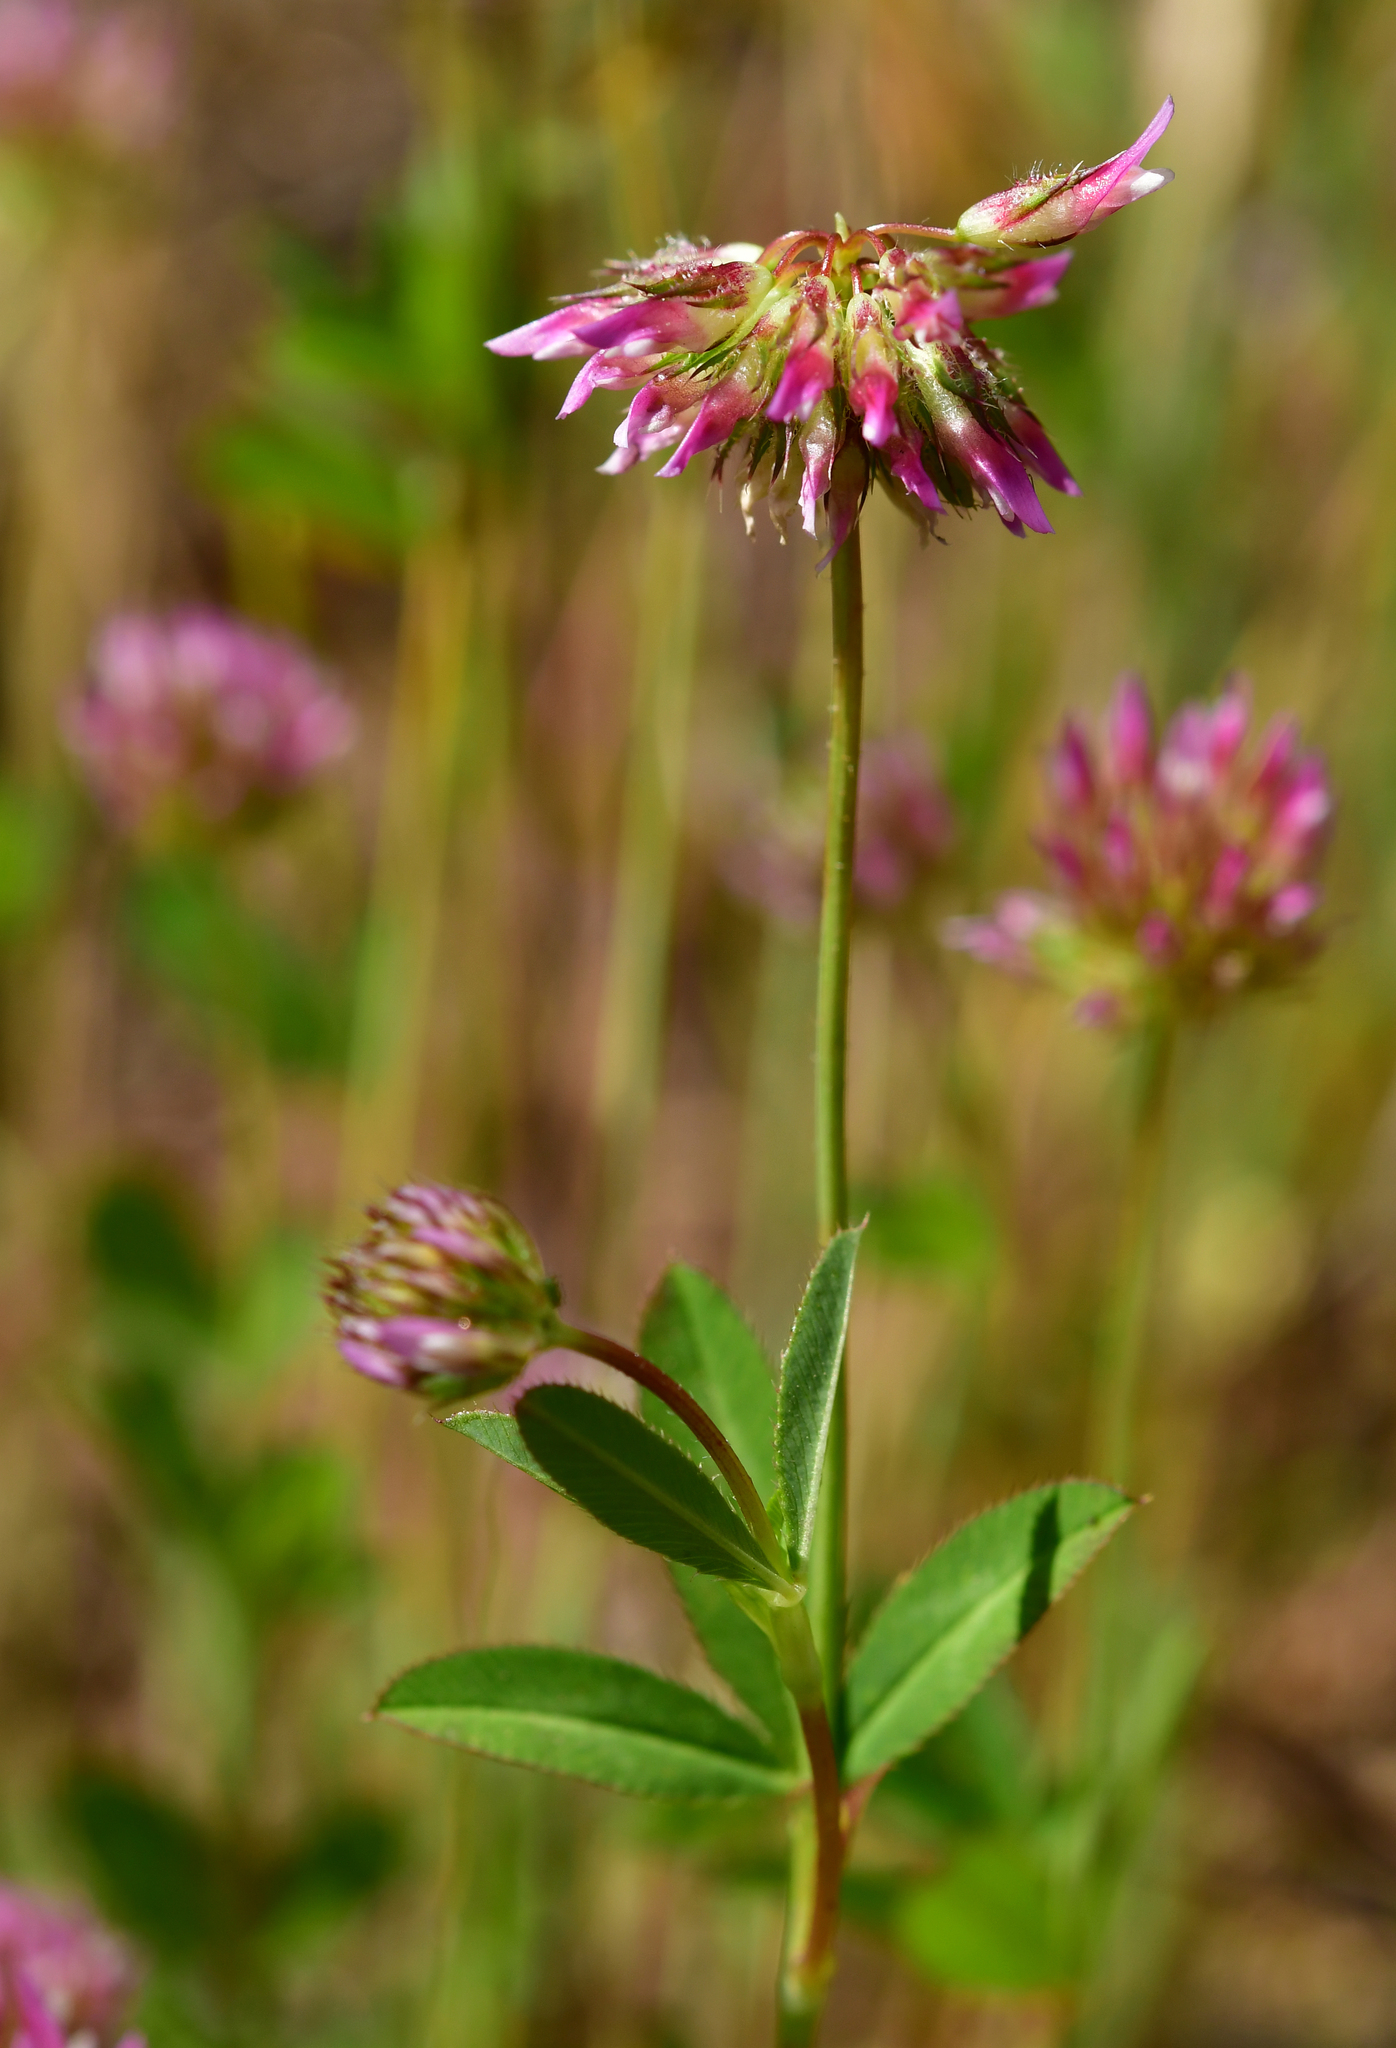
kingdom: Plantae
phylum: Tracheophyta
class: Magnoliopsida
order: Fabales
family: Fabaceae
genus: Trifolium
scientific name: Trifolium ciliolatum
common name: Foothill clover
